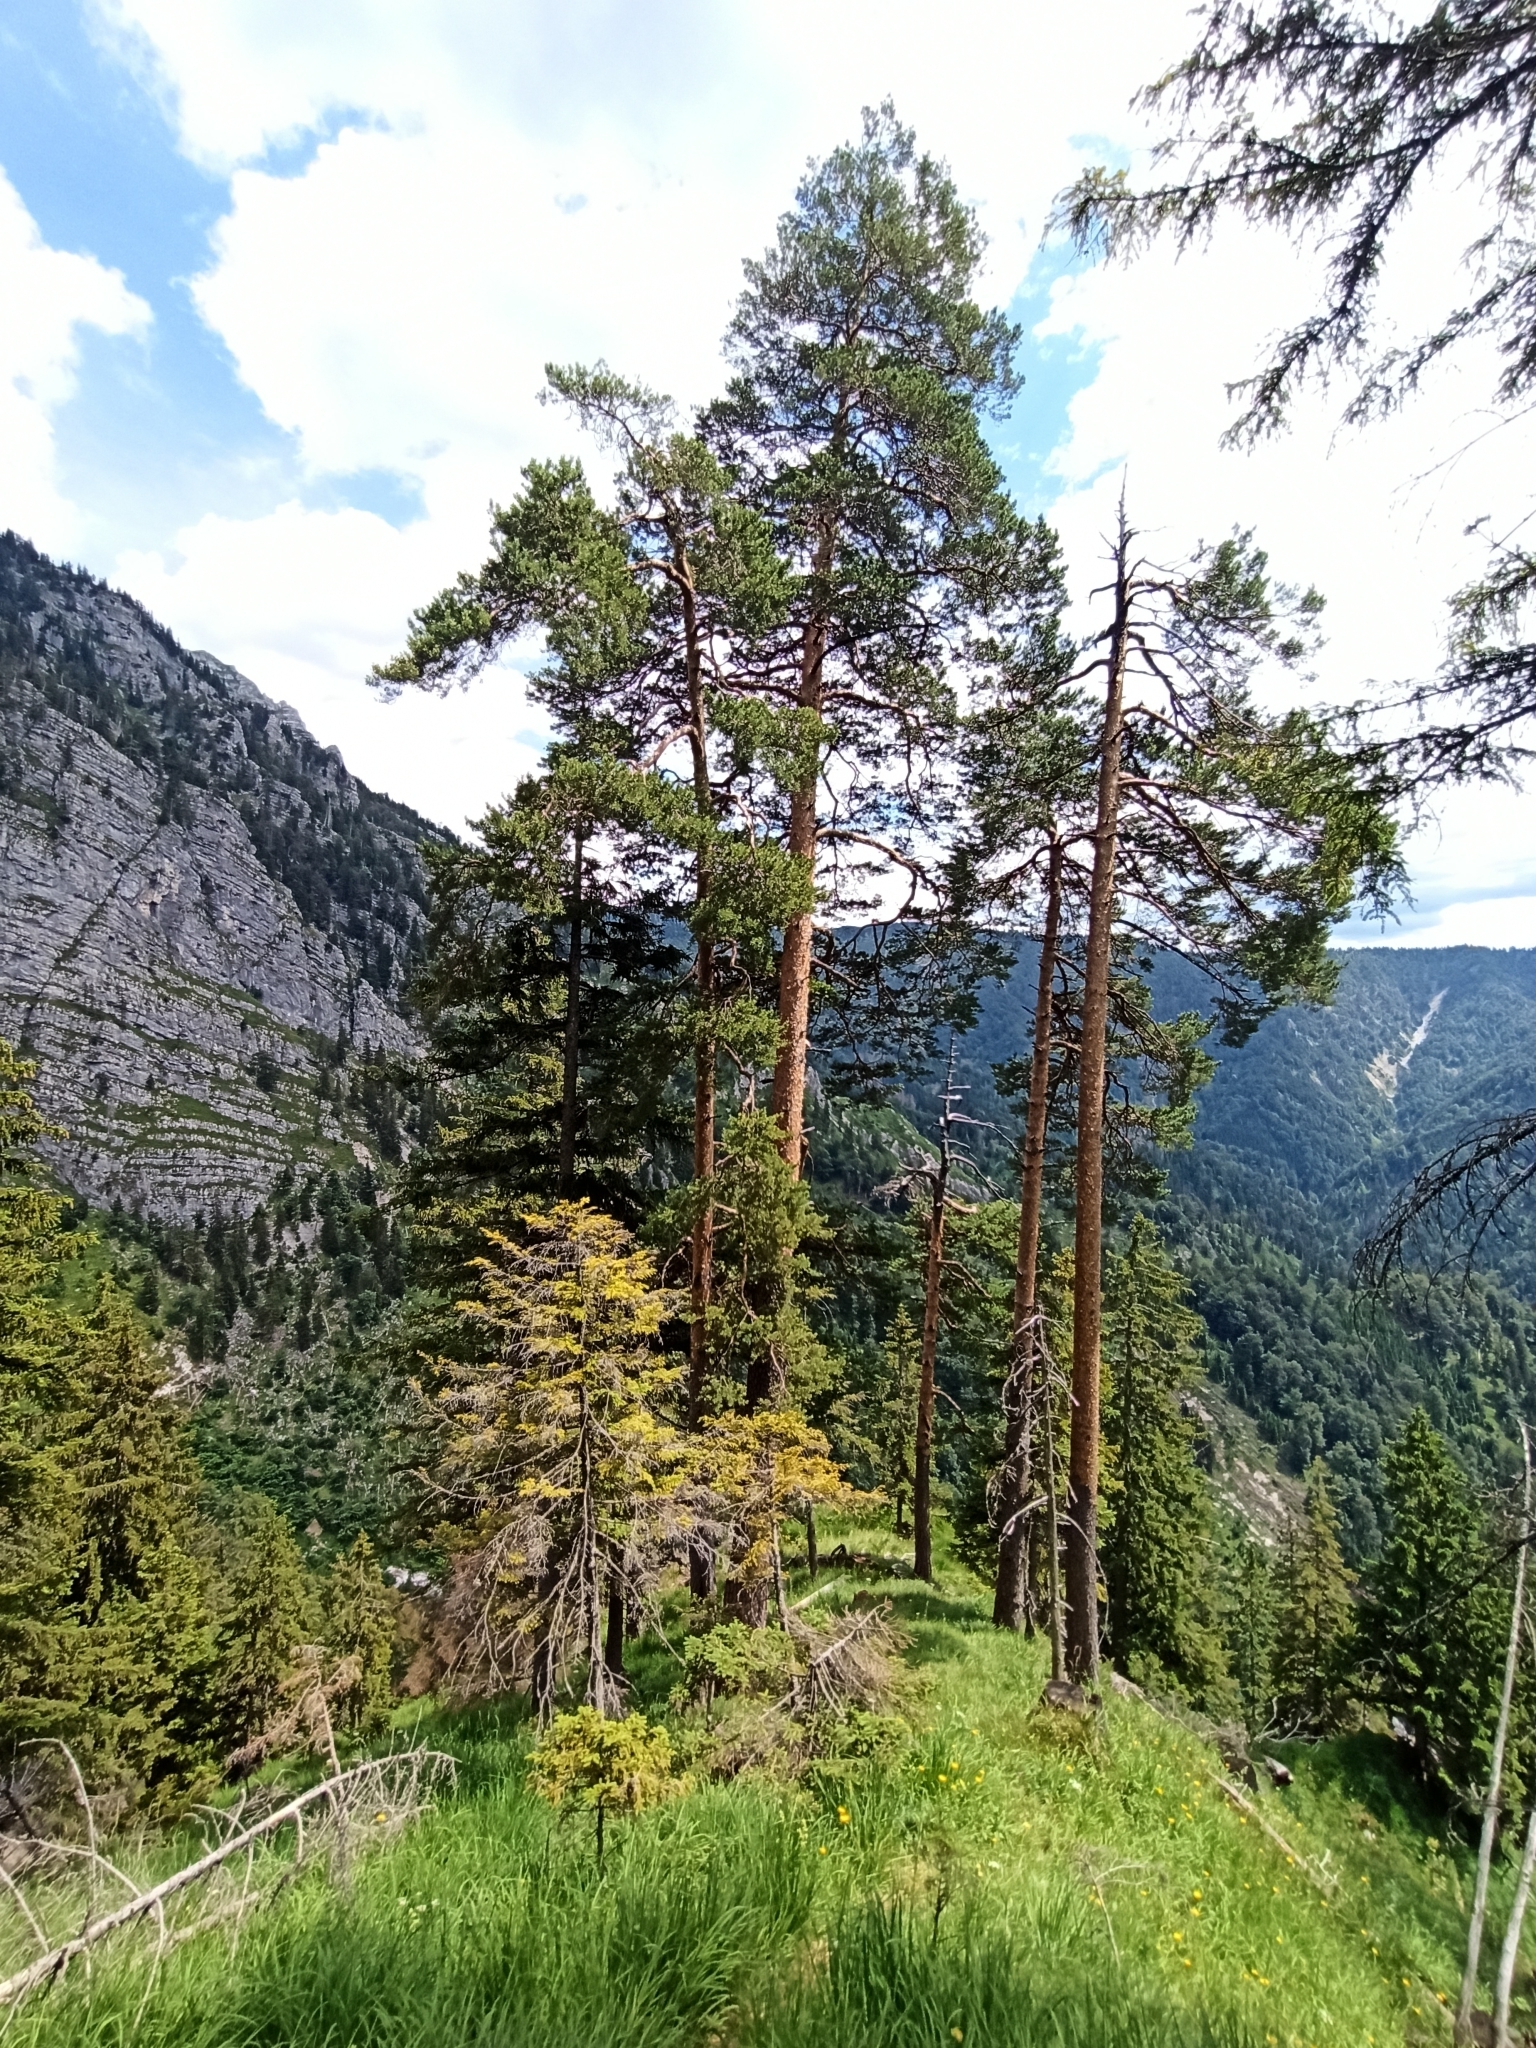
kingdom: Plantae
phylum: Tracheophyta
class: Pinopsida
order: Pinales
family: Pinaceae
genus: Pinus
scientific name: Pinus sylvestris
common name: Scots pine
